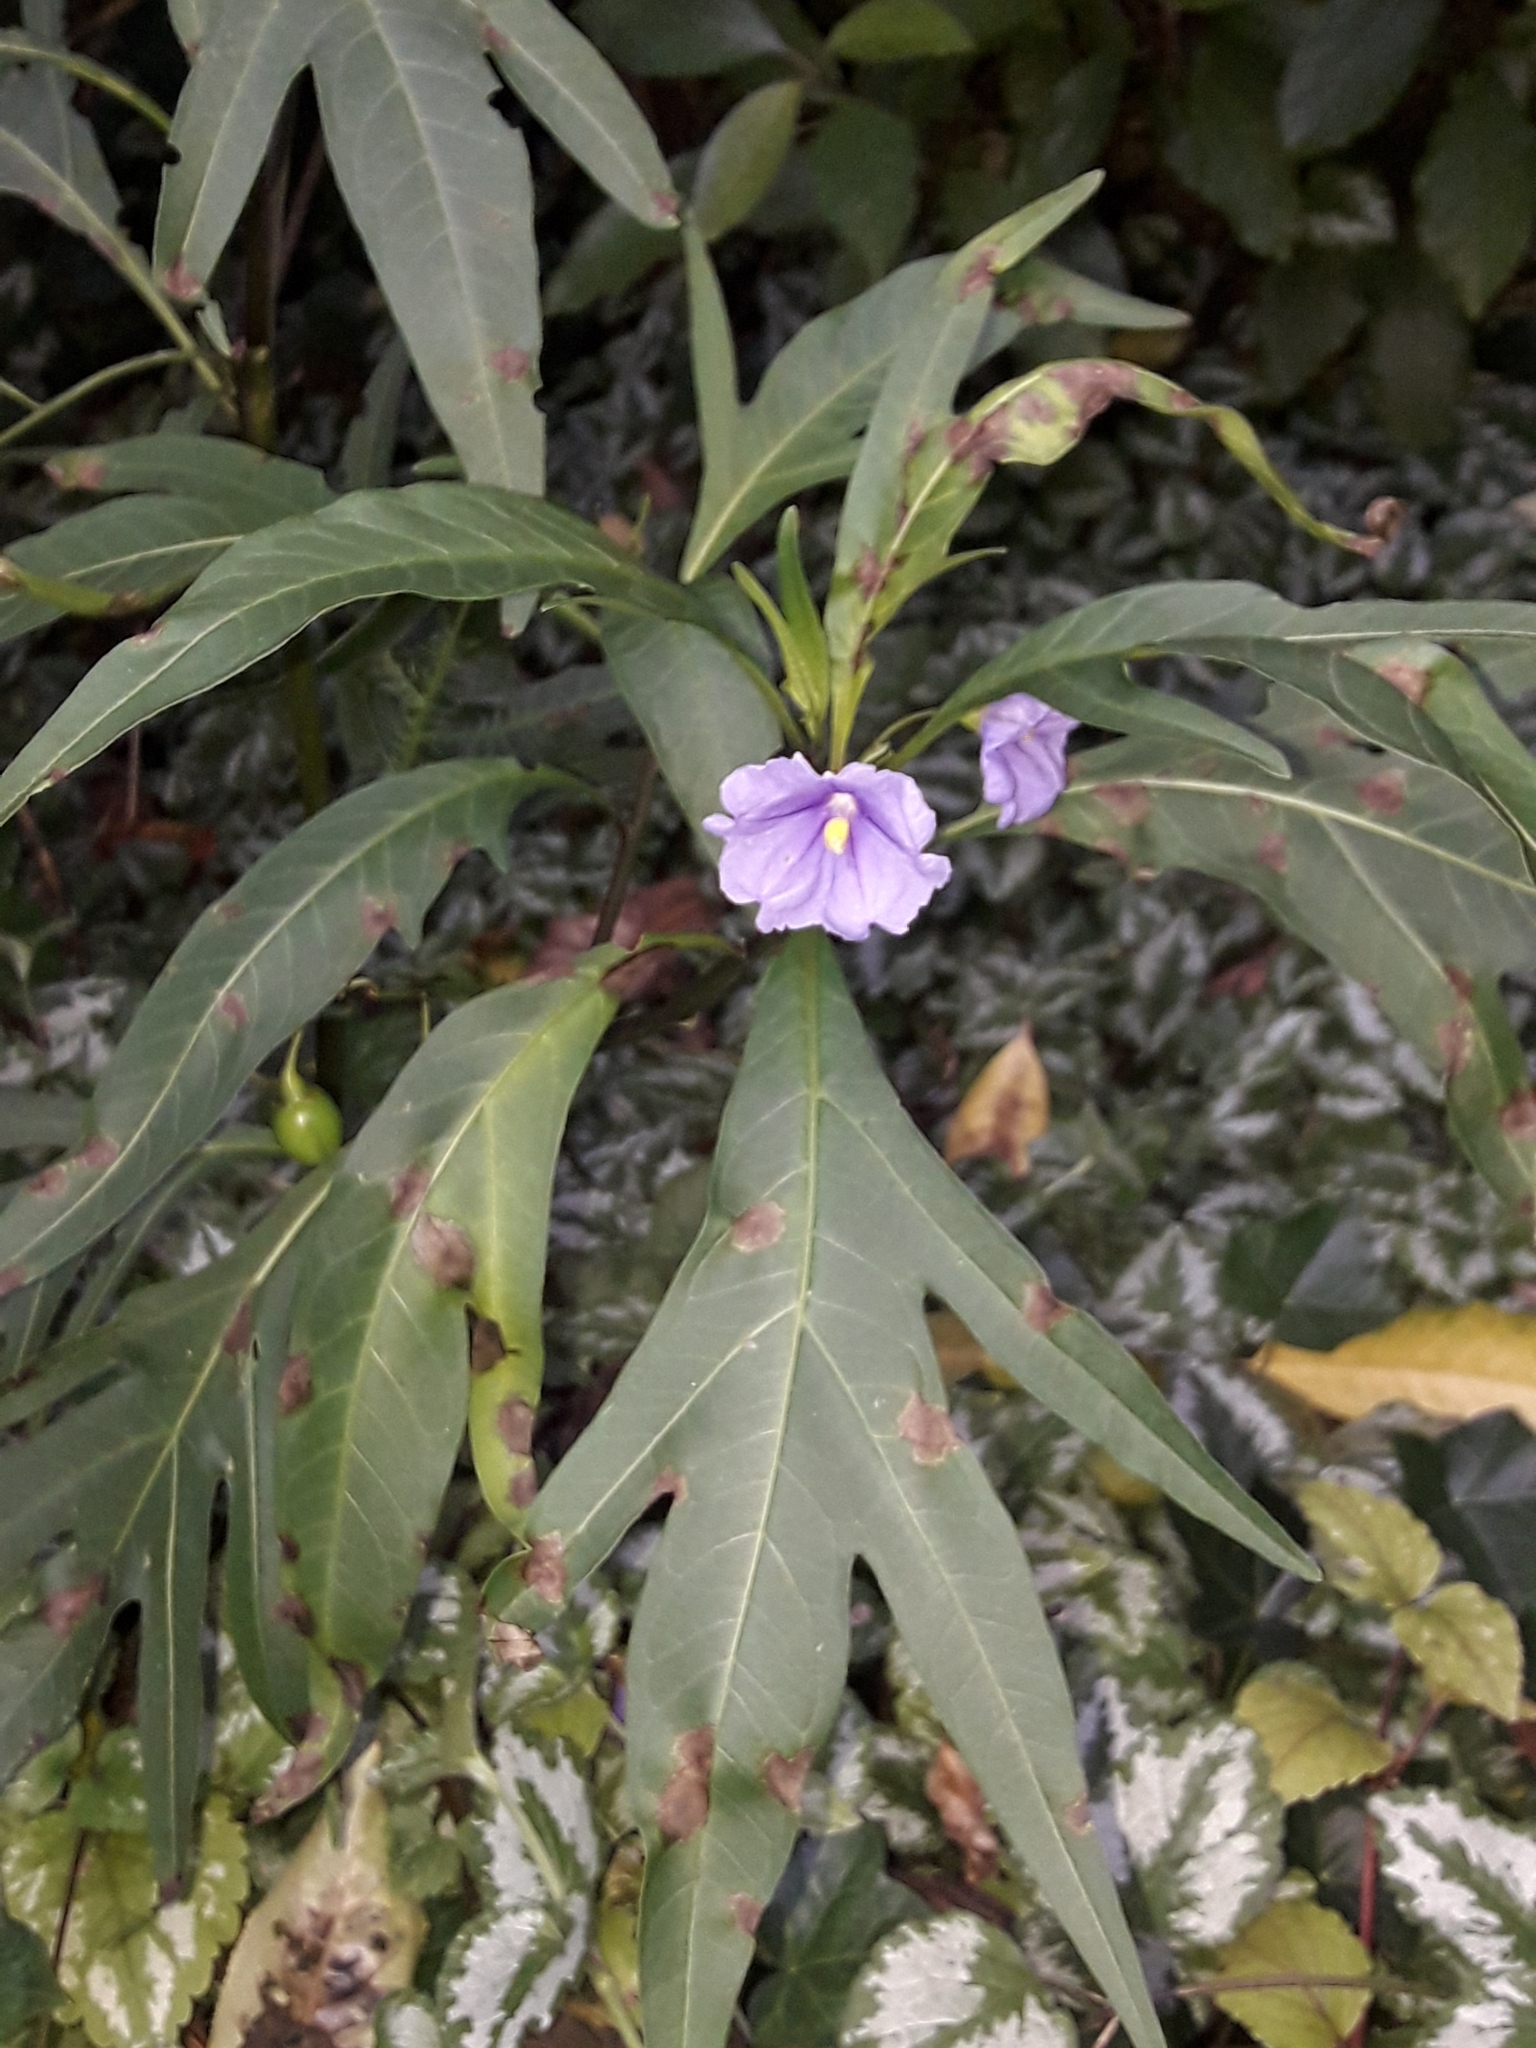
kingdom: Plantae
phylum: Tracheophyta
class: Magnoliopsida
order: Solanales
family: Solanaceae
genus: Solanum
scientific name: Solanum laciniatum
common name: Kangaroo-apple
